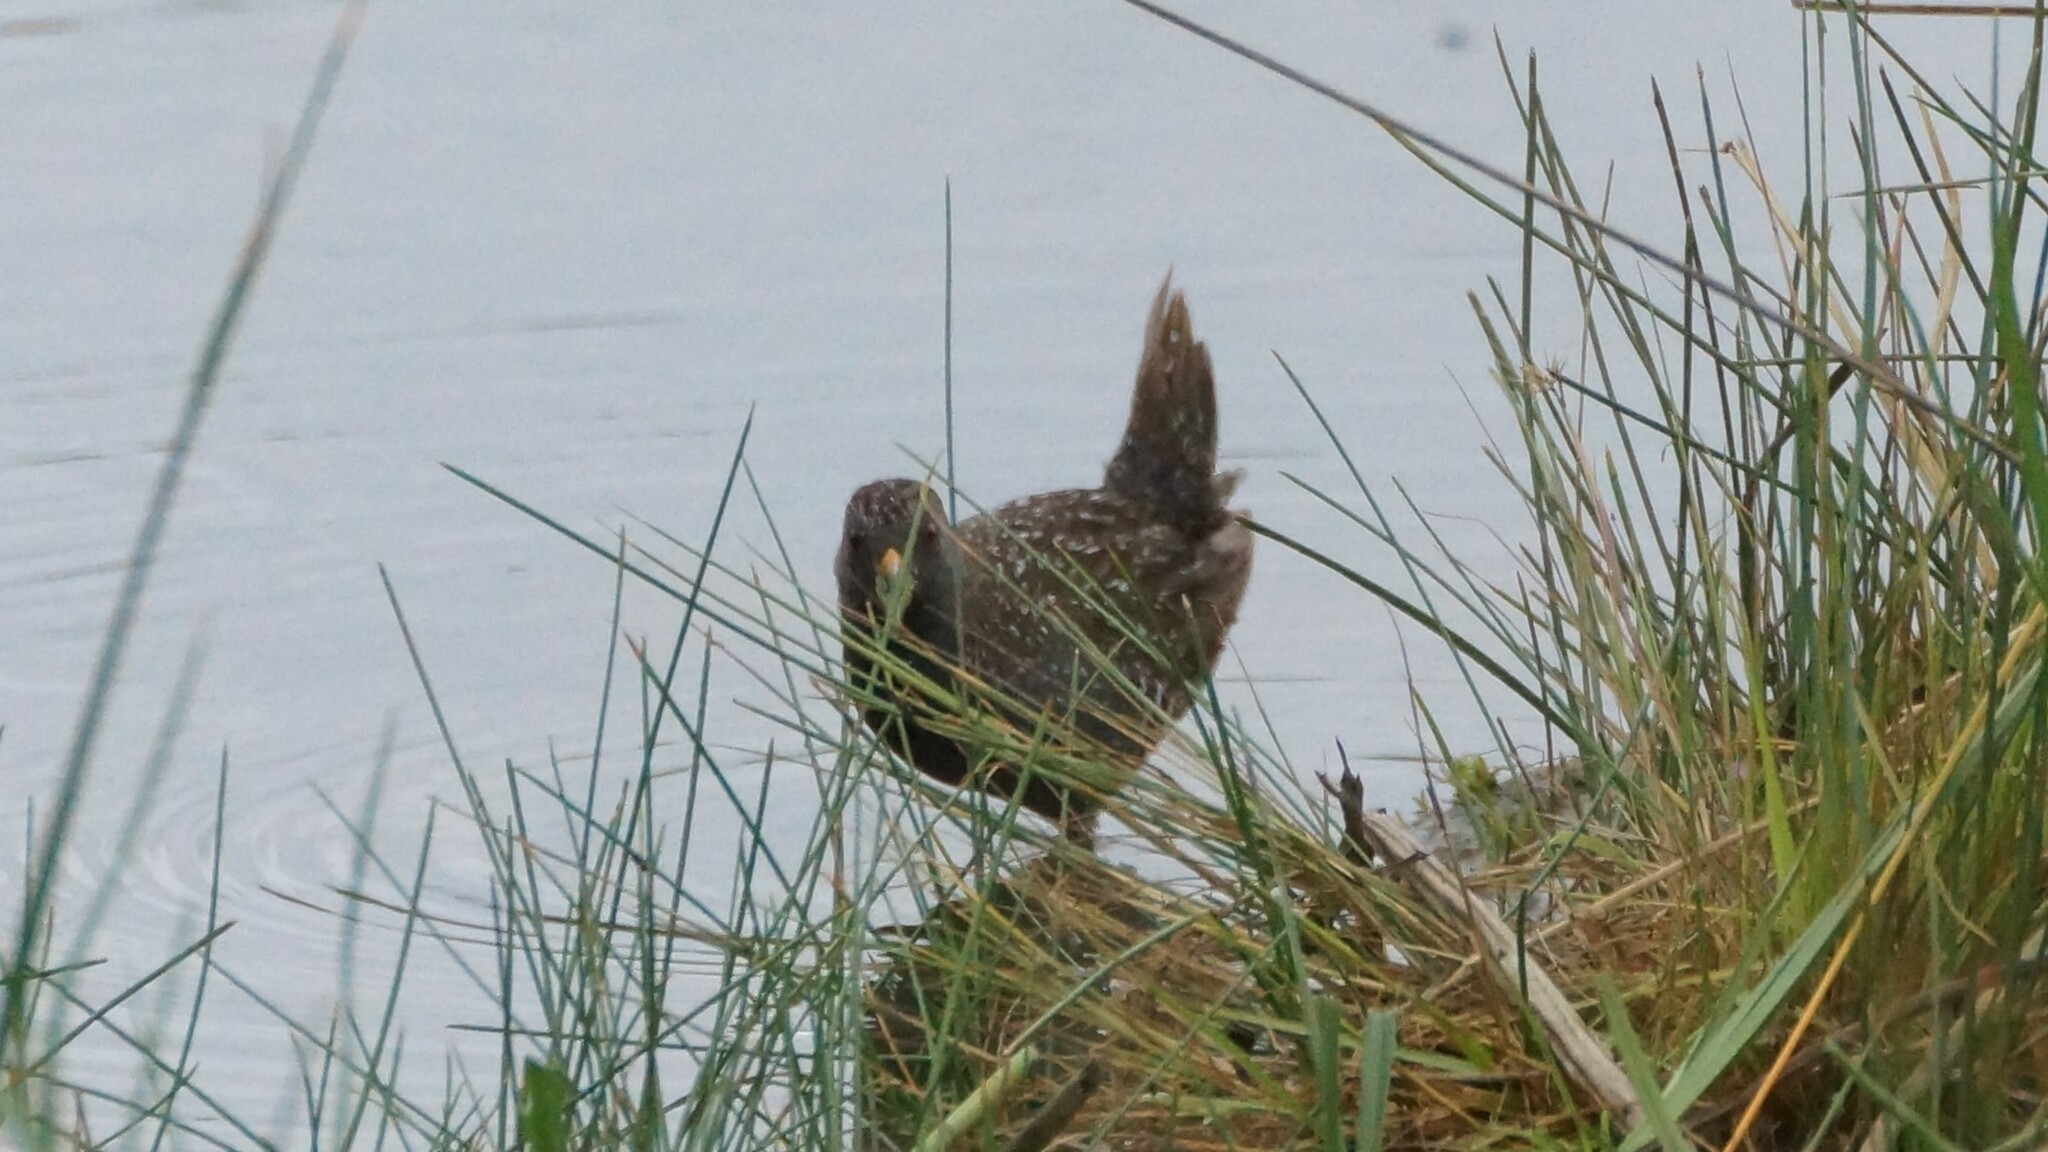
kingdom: Animalia
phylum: Chordata
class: Aves
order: Gruiformes
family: Rallidae
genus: Porzana
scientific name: Porzana fluminea
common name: Australian crake
